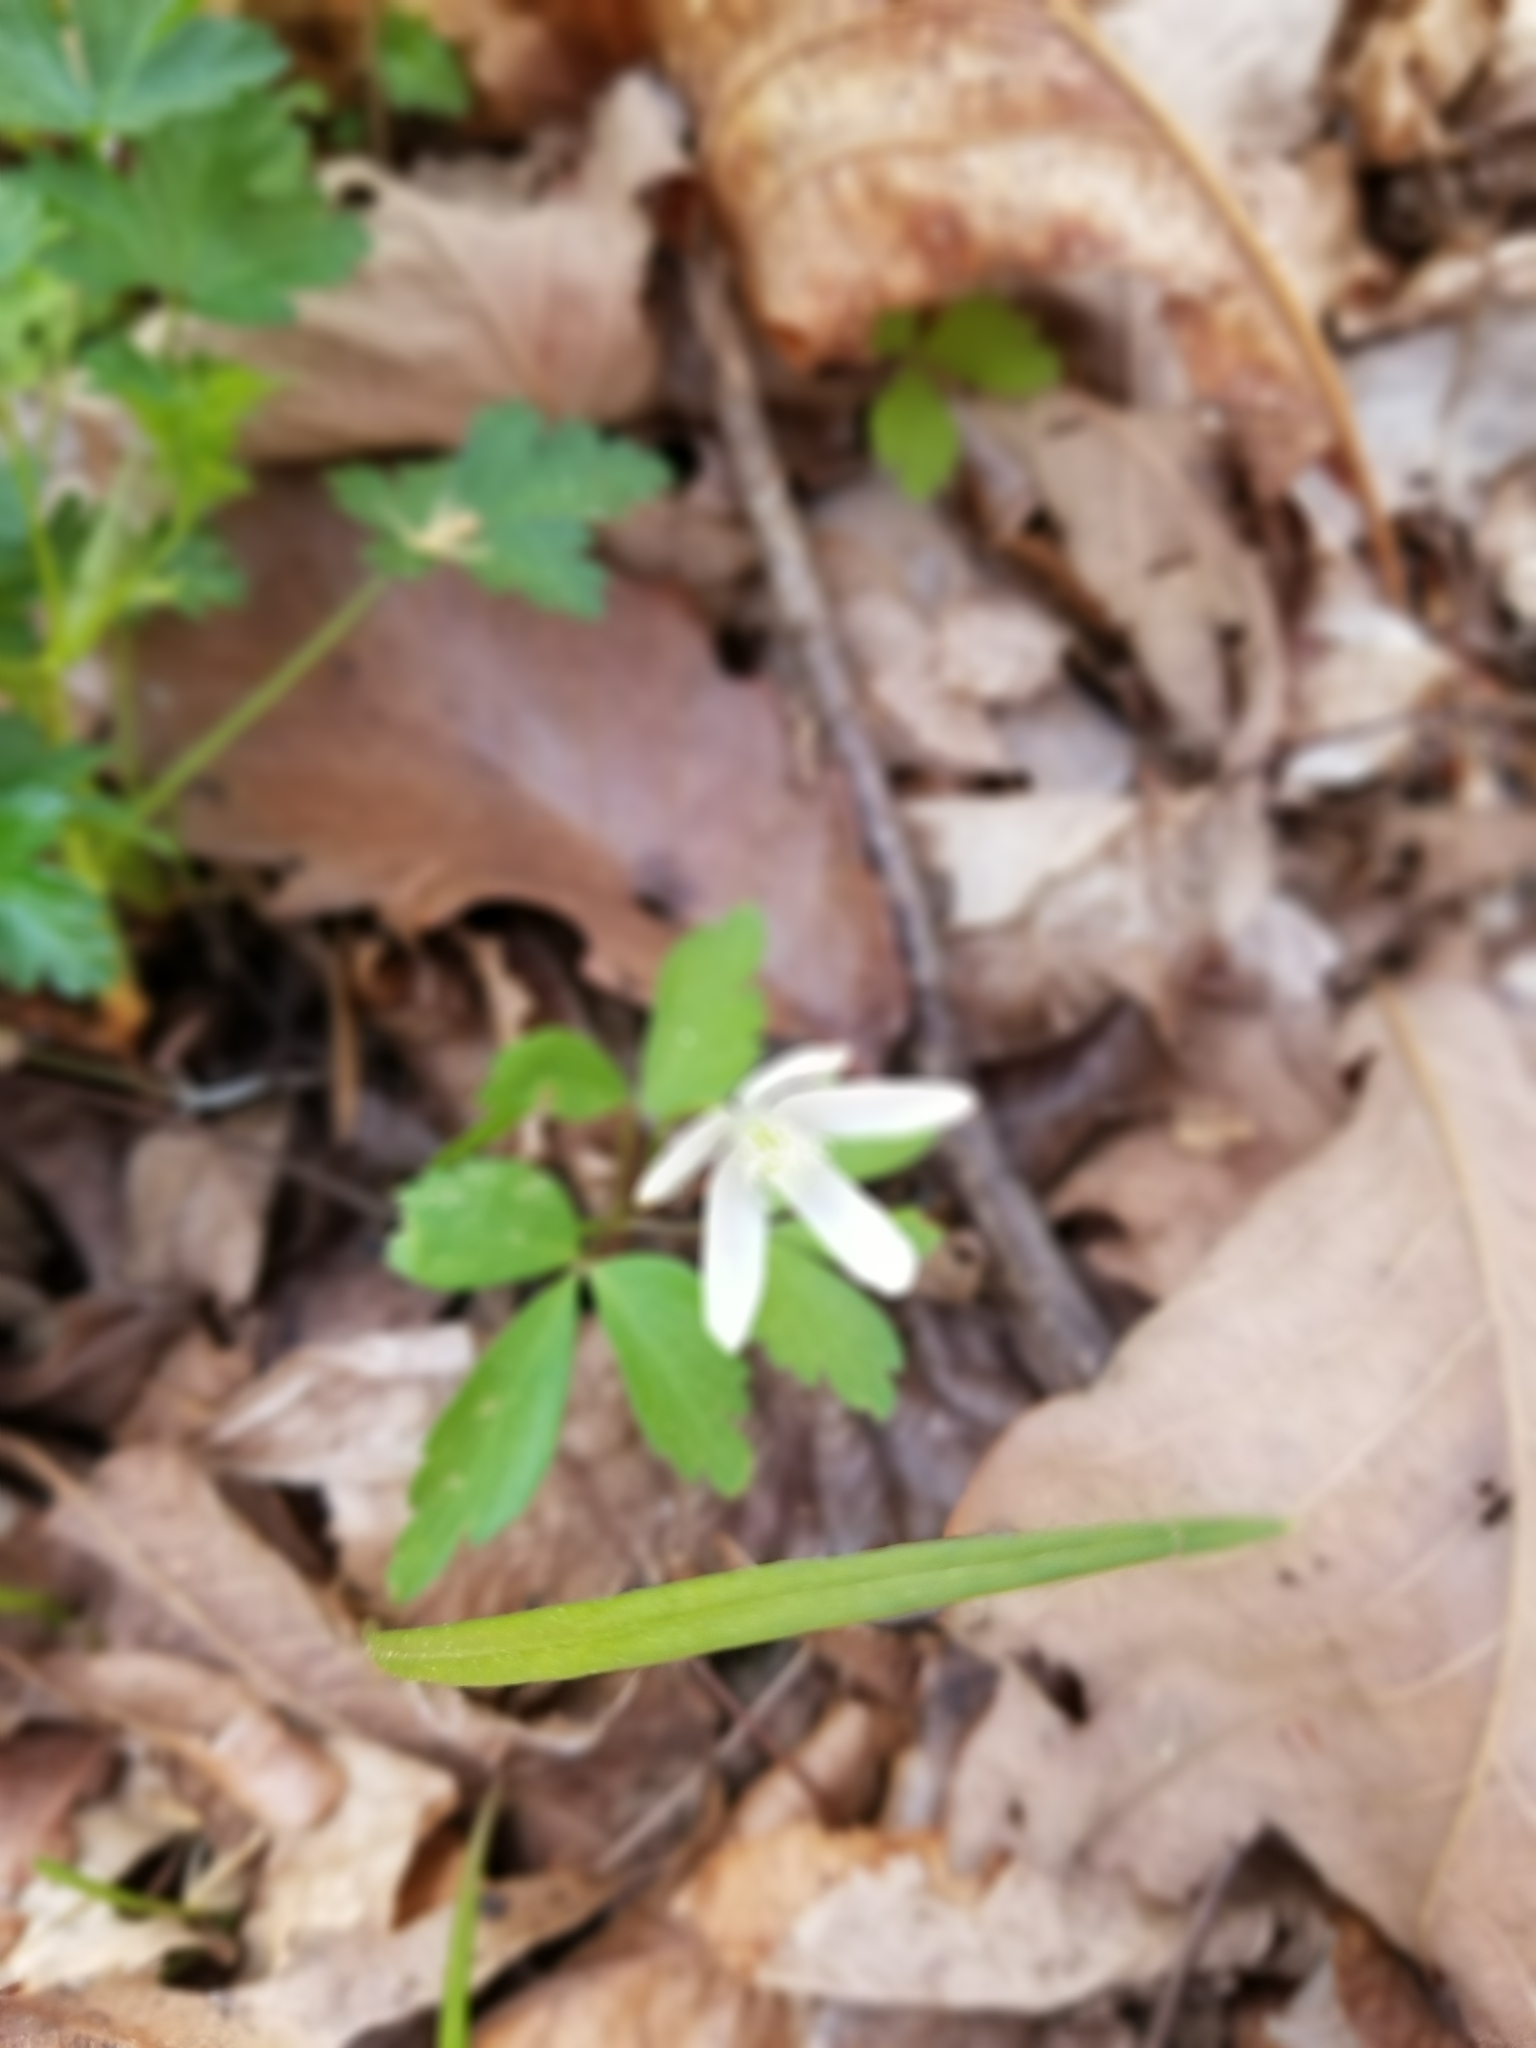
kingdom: Plantae
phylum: Tracheophyta
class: Magnoliopsida
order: Ranunculales
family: Ranunculaceae
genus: Anemone
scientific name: Anemone lancifolia
